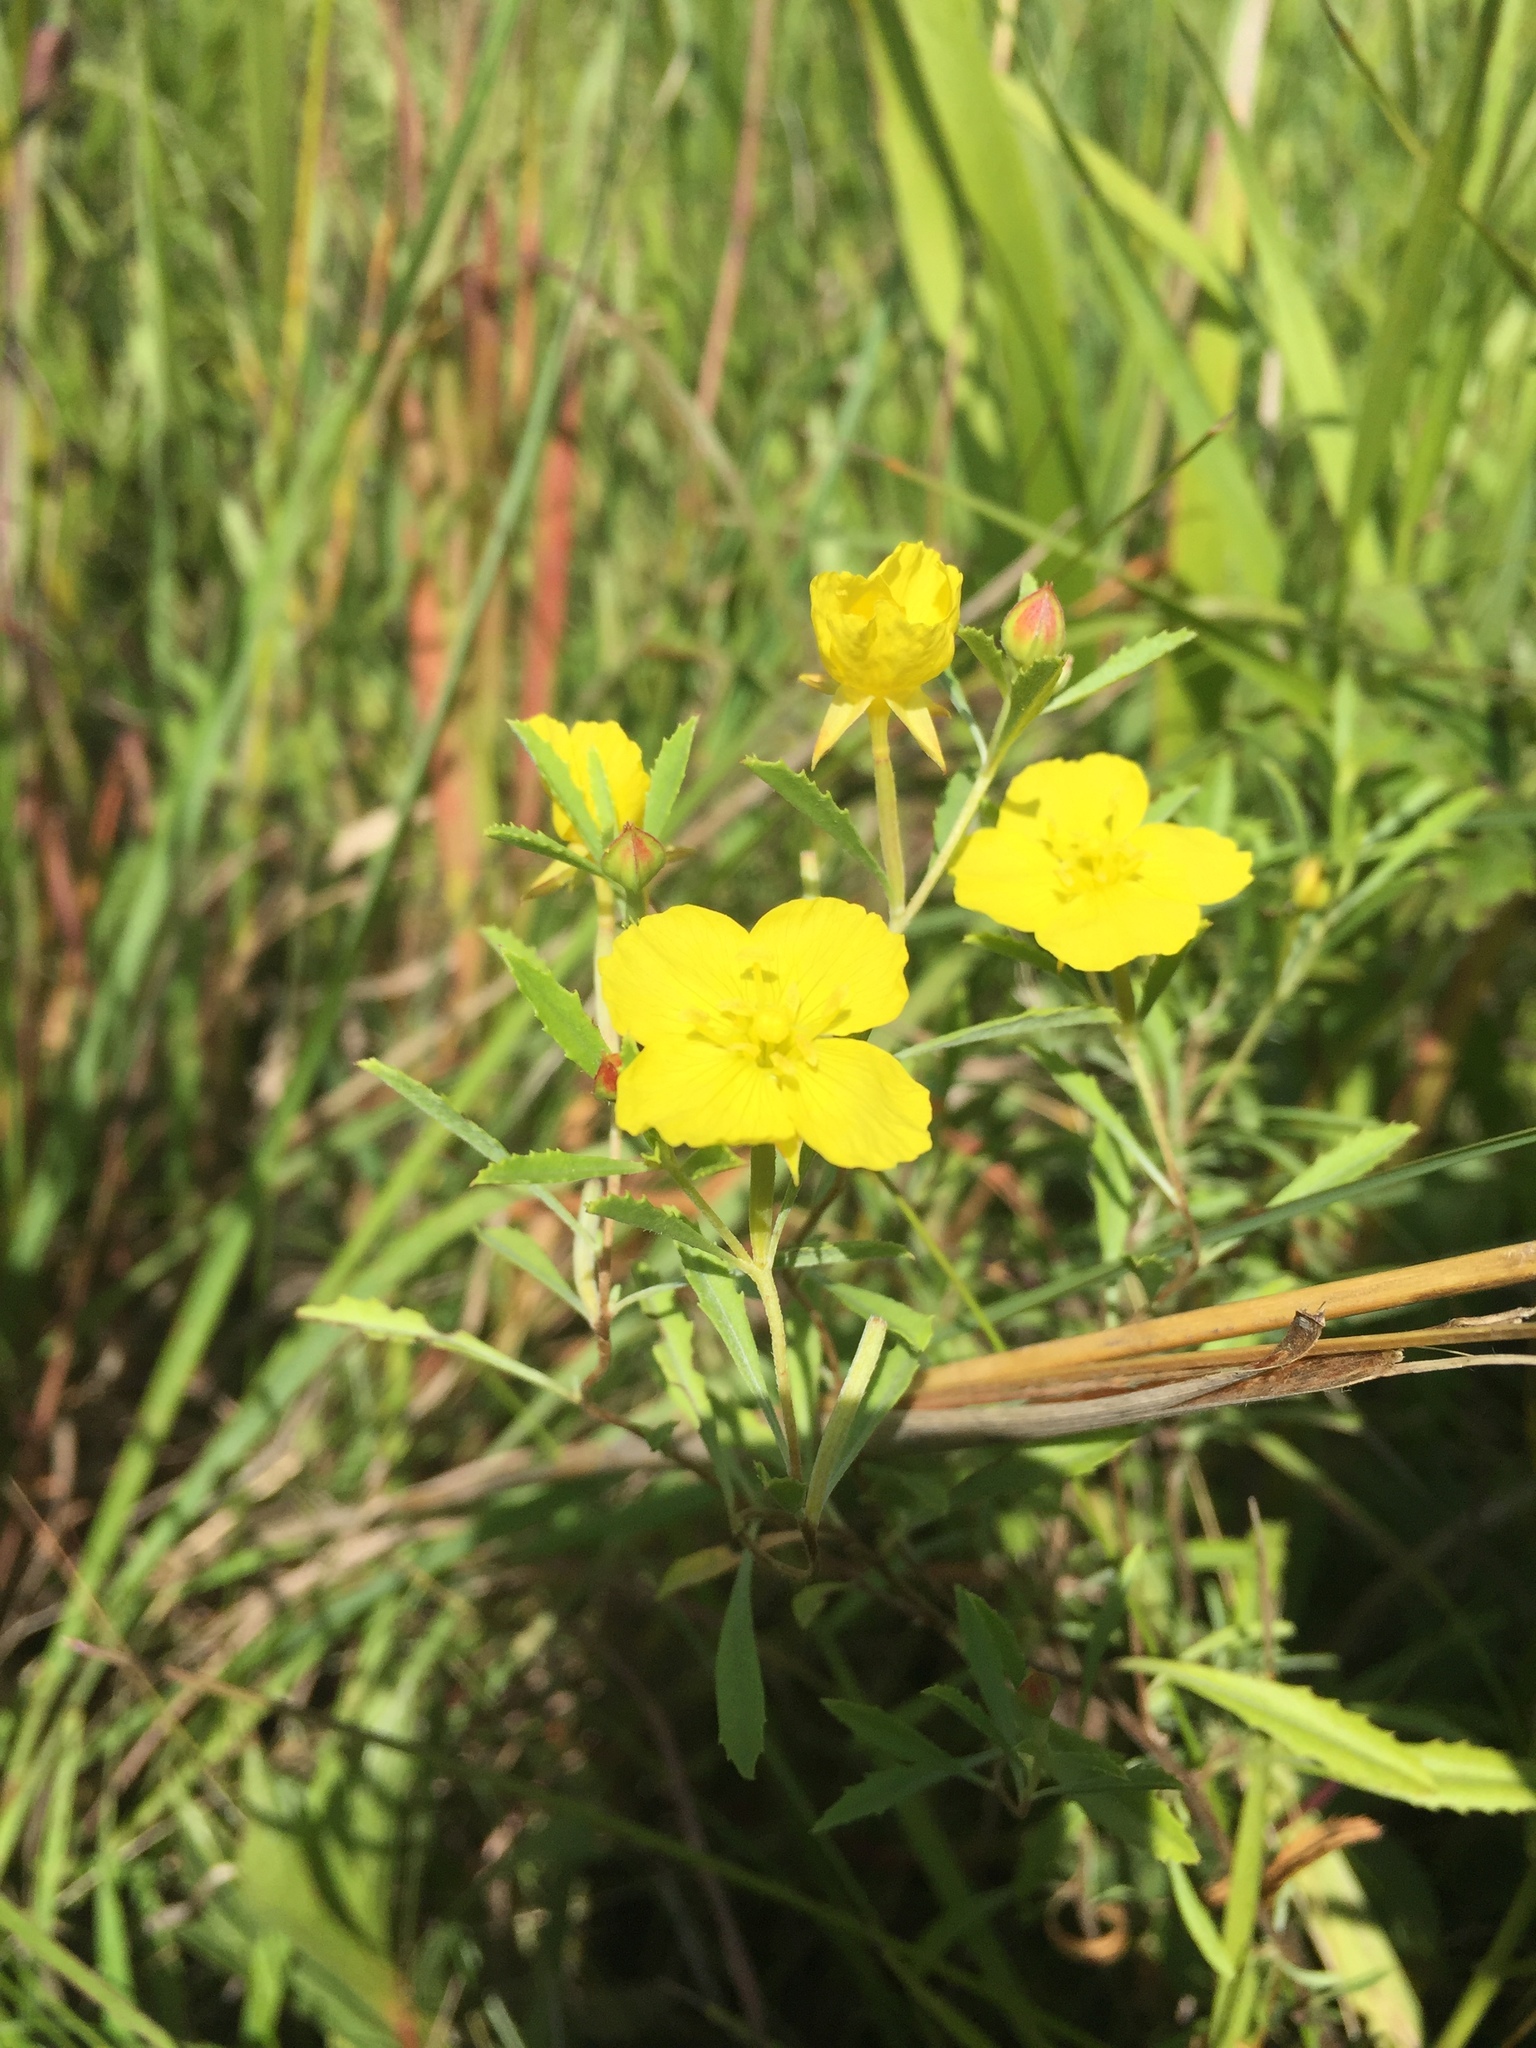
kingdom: Plantae
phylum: Tracheophyta
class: Magnoliopsida
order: Myrtales
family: Onagraceae
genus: Oenothera
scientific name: Oenothera serrulata
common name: Half-shrub calylophus
